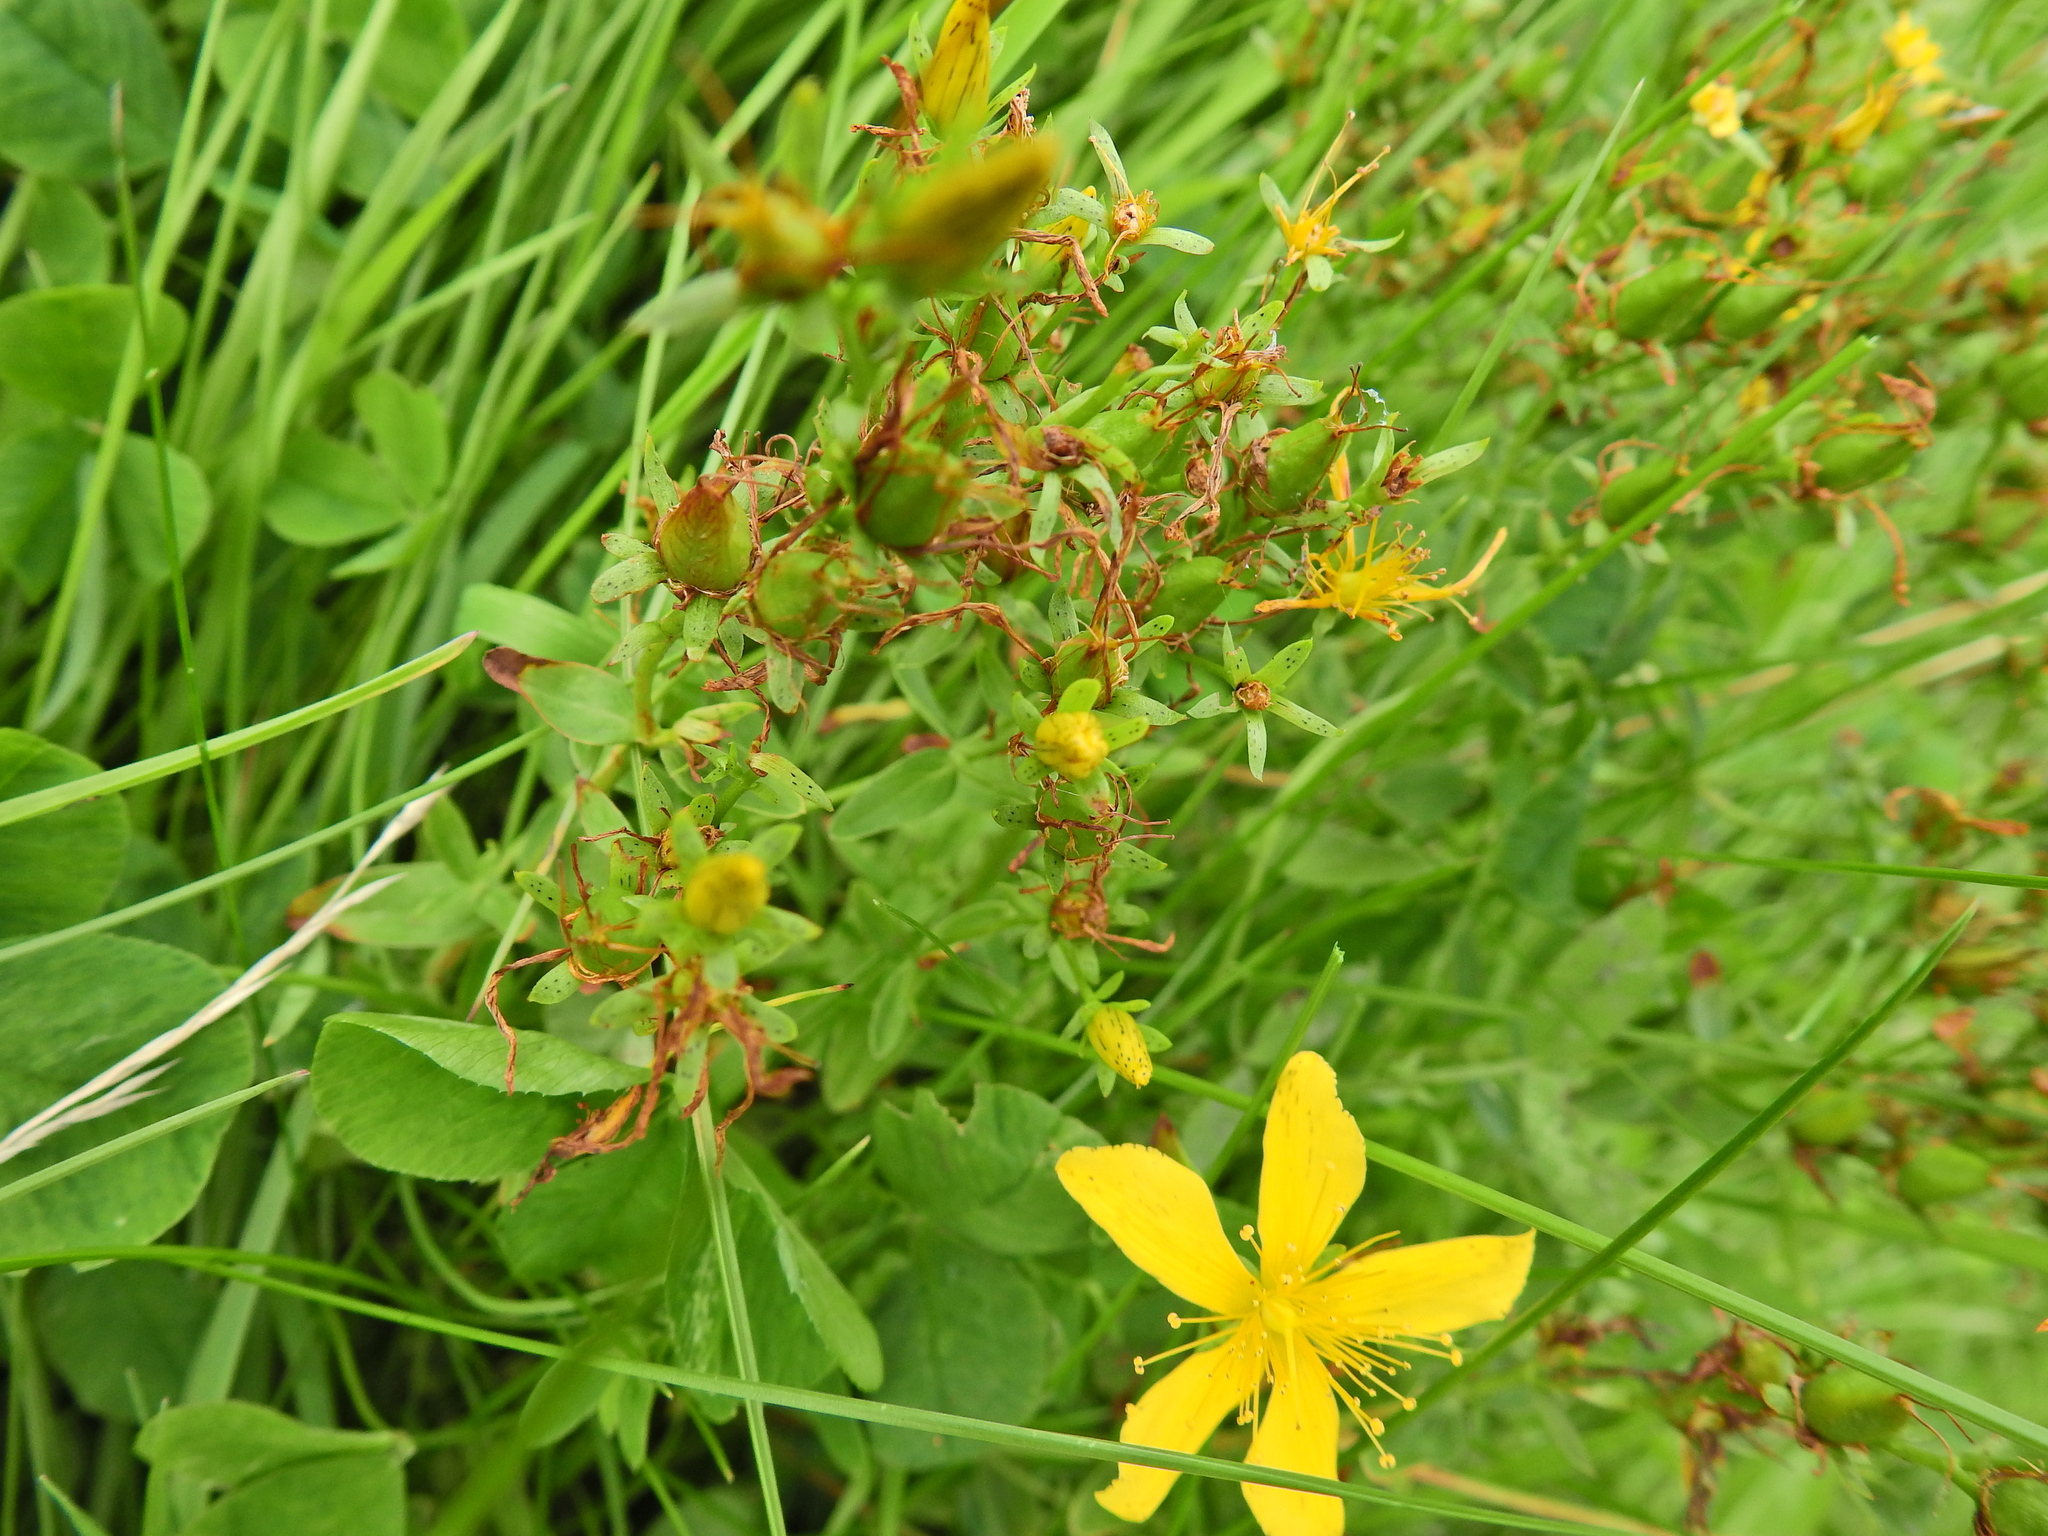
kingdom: Plantae
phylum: Tracheophyta
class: Magnoliopsida
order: Malpighiales
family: Hypericaceae
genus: Hypericum
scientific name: Hypericum perforatum
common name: Common st. johnswort
